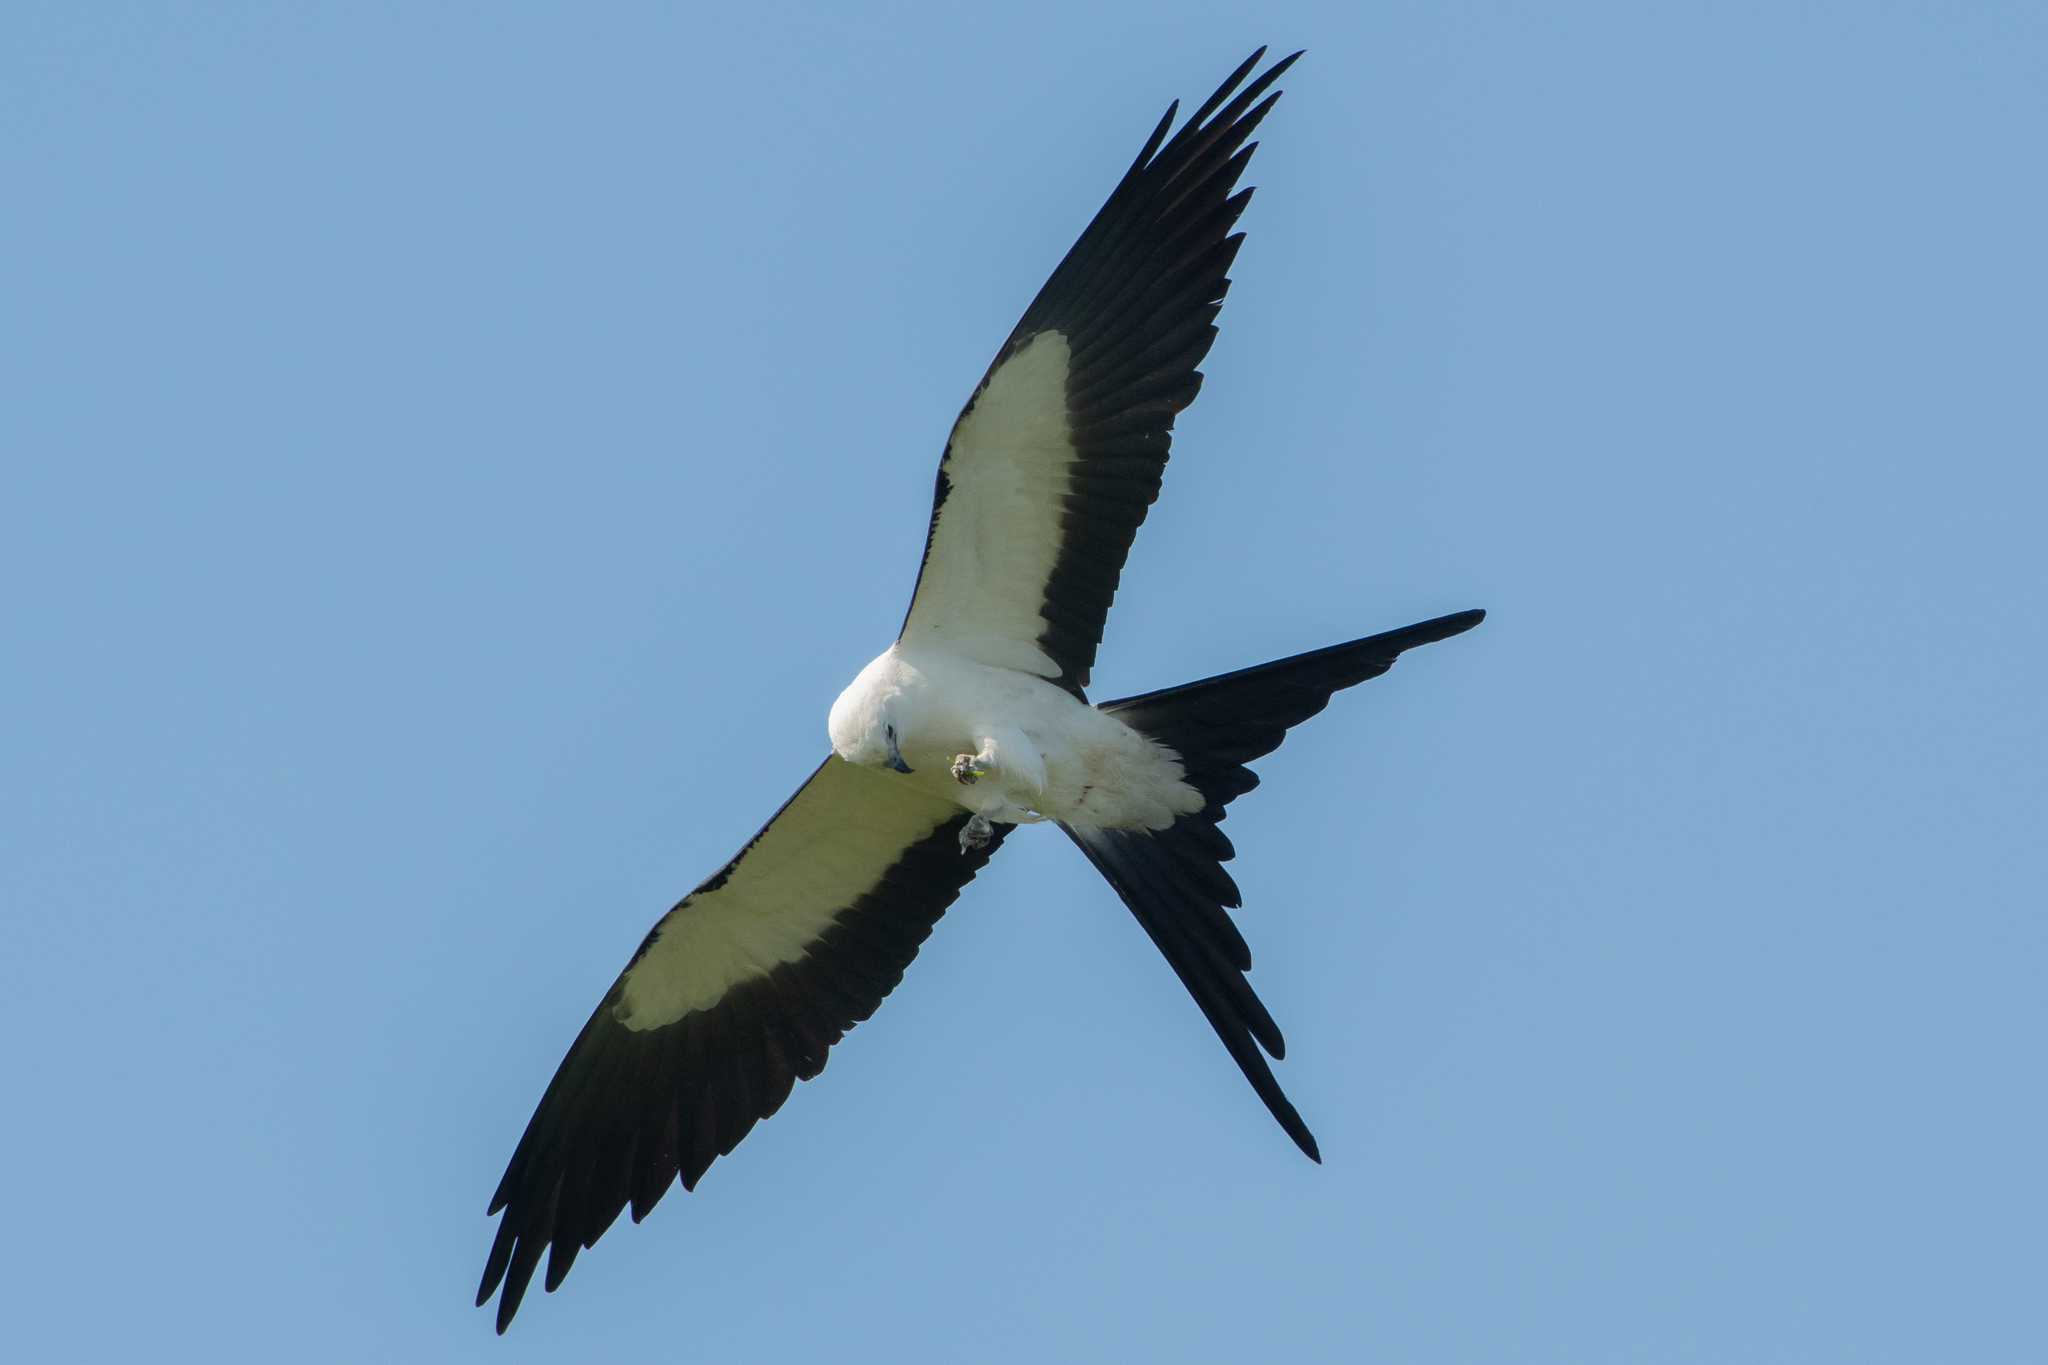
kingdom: Animalia
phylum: Chordata
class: Aves
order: Accipitriformes
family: Accipitridae
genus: Elanoides
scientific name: Elanoides forficatus
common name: Swallow-tailed kite
